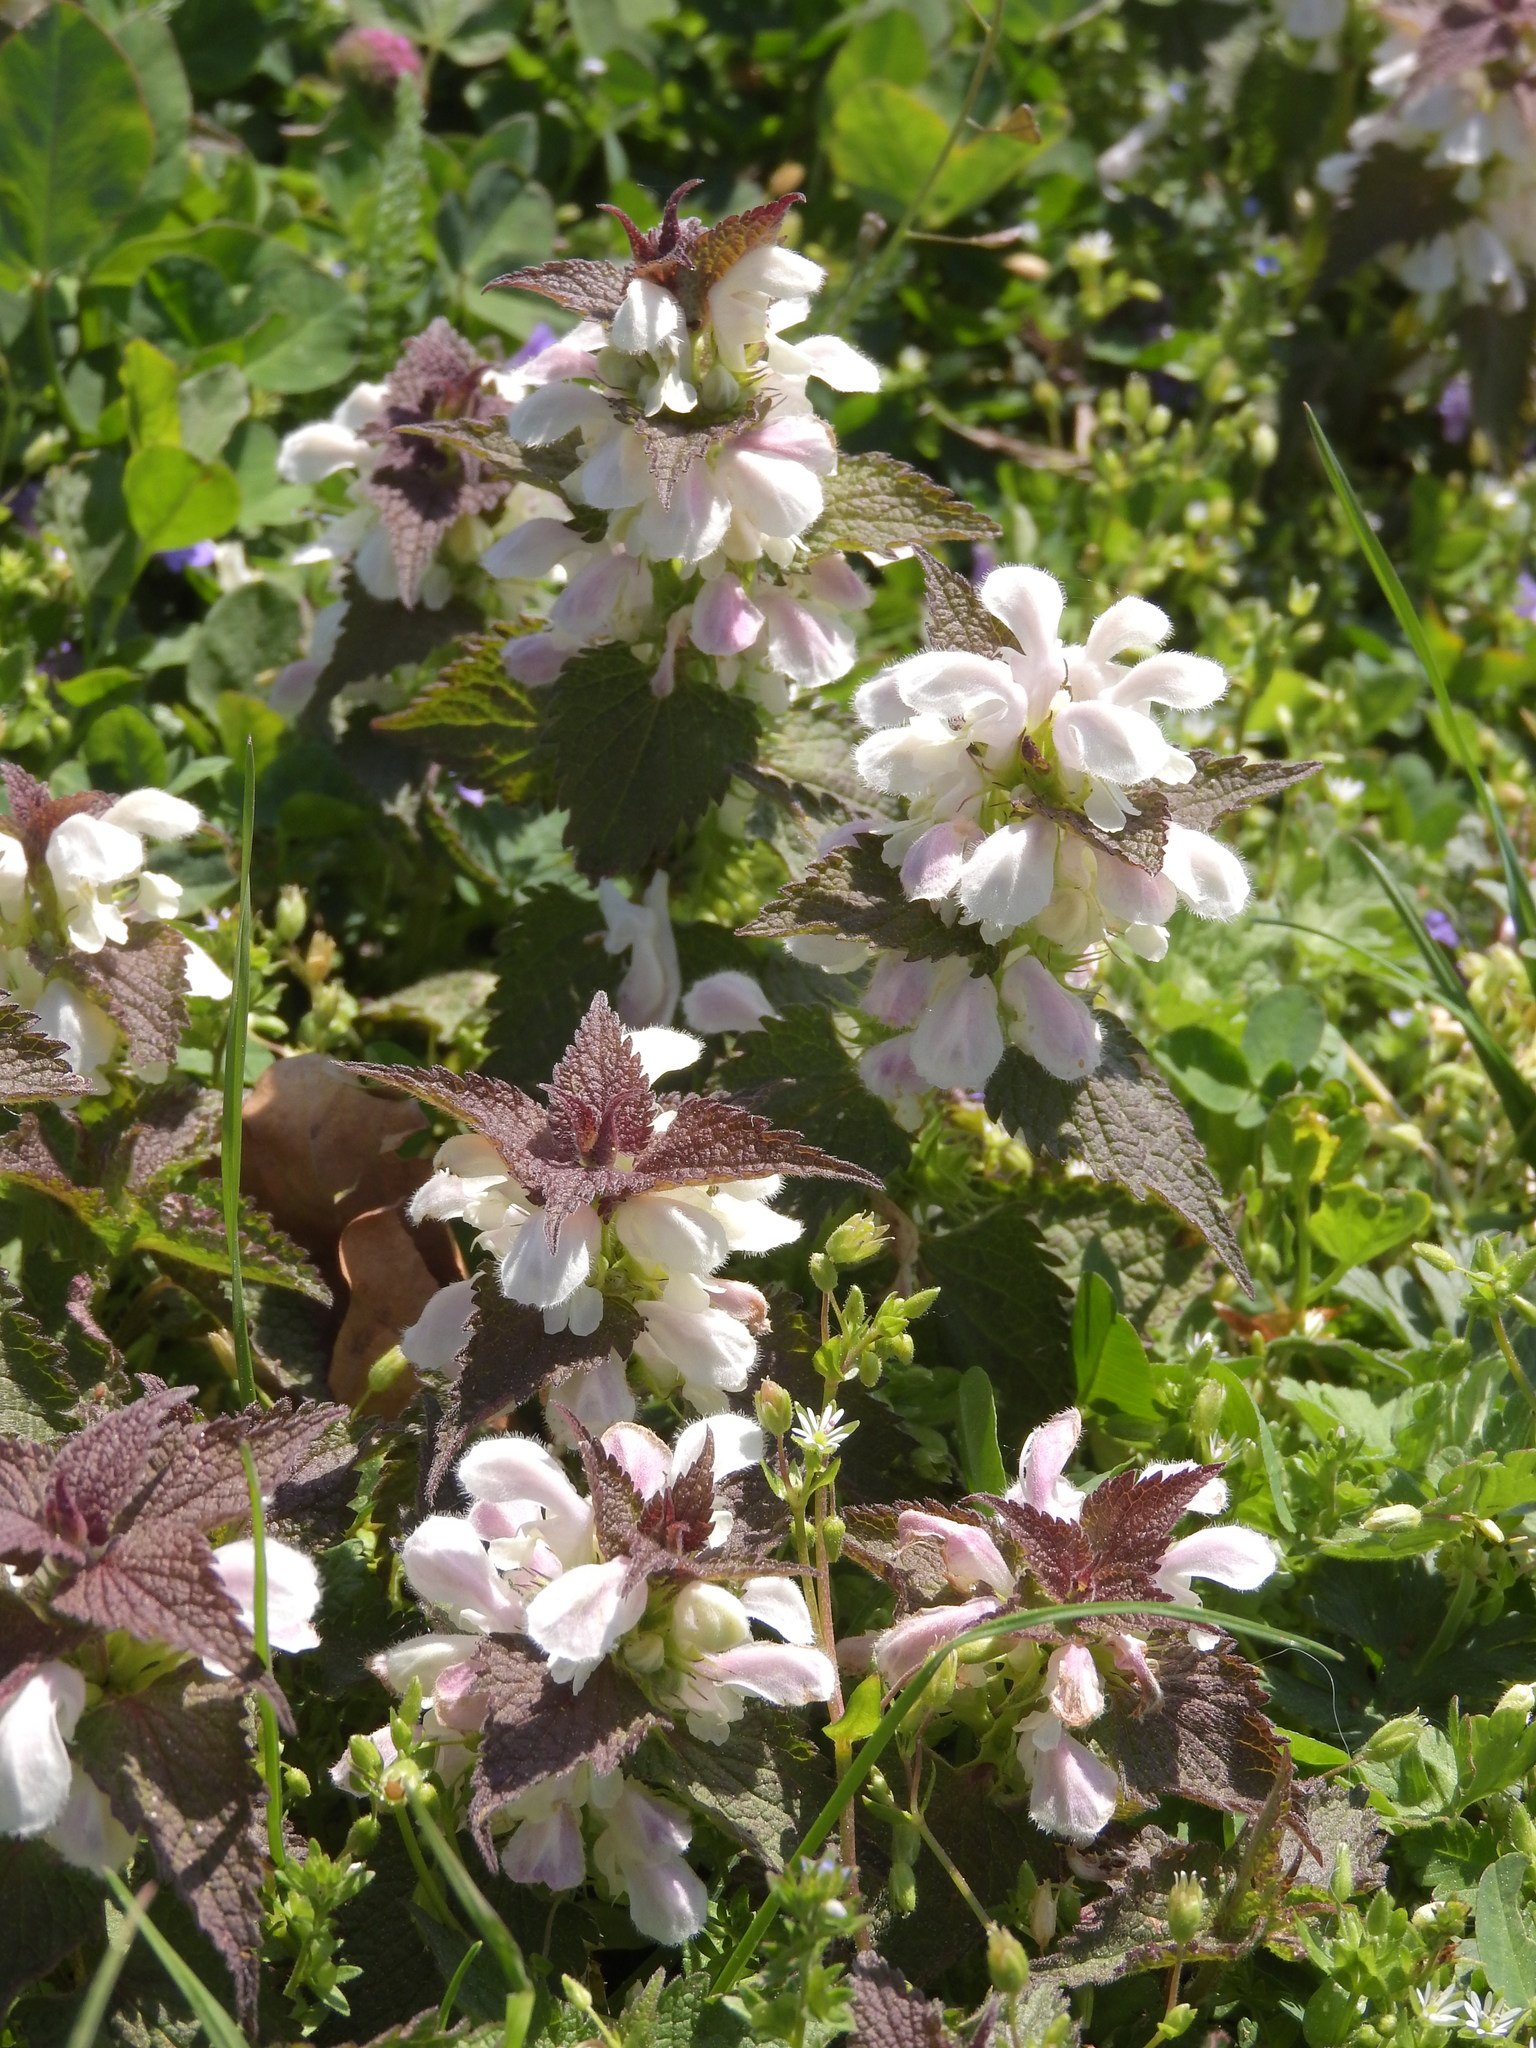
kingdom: Plantae
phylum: Tracheophyta
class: Magnoliopsida
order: Lamiales
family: Lamiaceae
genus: Lamium
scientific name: Lamium album
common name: White dead-nettle
